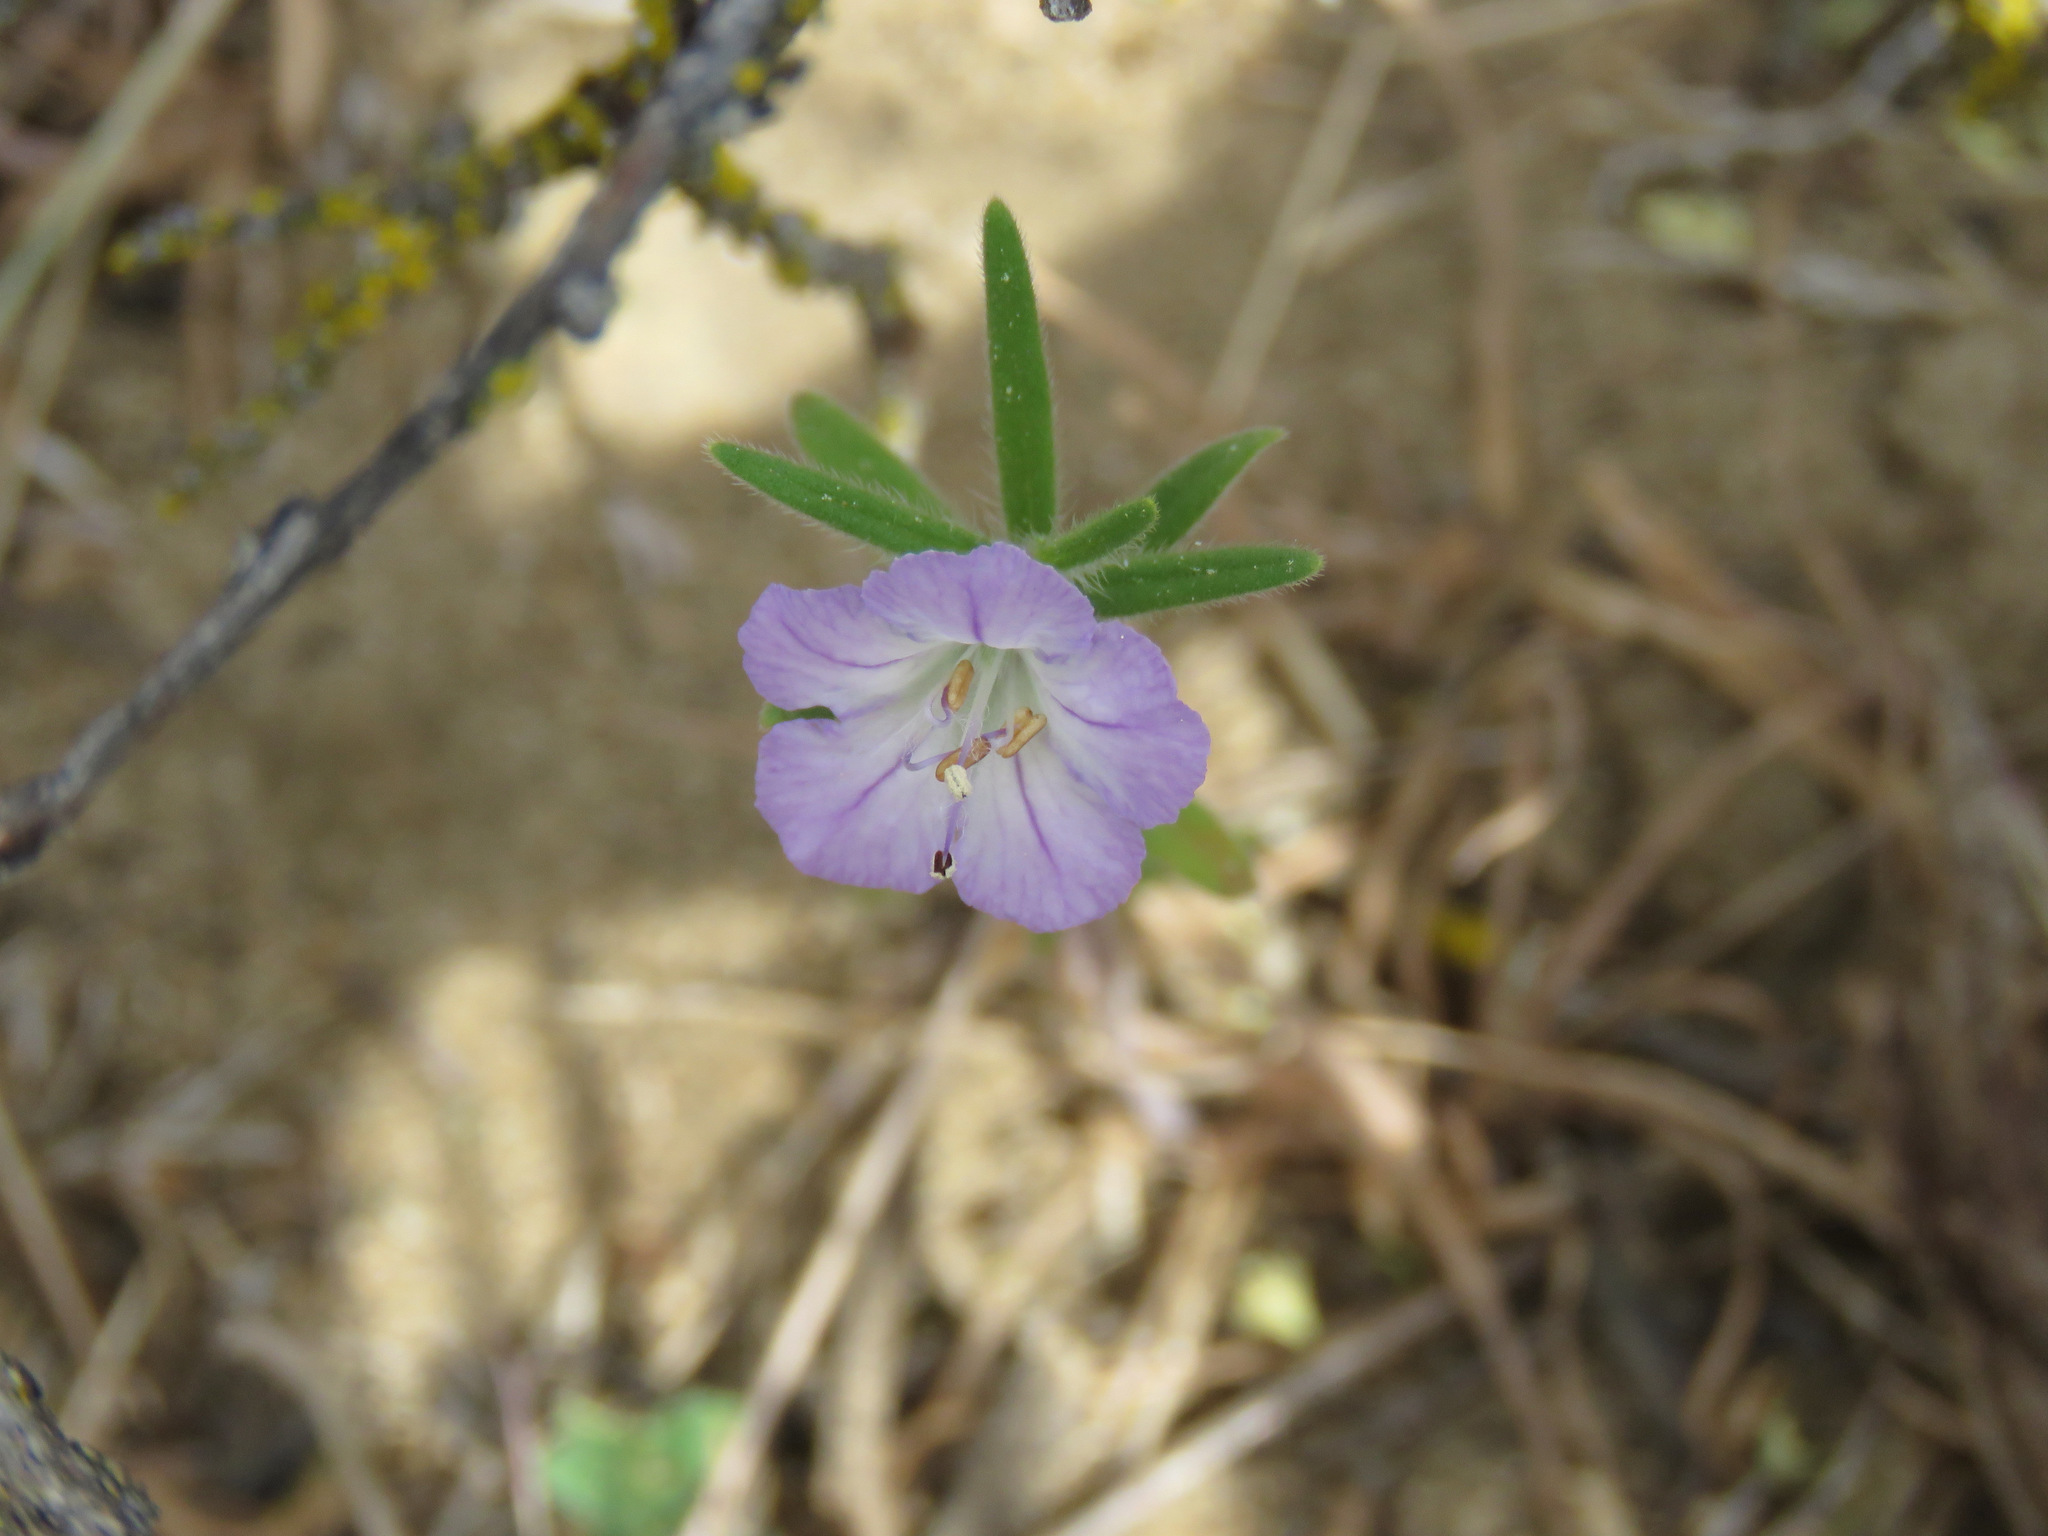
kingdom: Plantae
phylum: Tracheophyta
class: Magnoliopsida
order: Boraginales
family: Hydrophyllaceae
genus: Phacelia
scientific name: Phacelia linearis
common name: Linear-leaved phacelia
